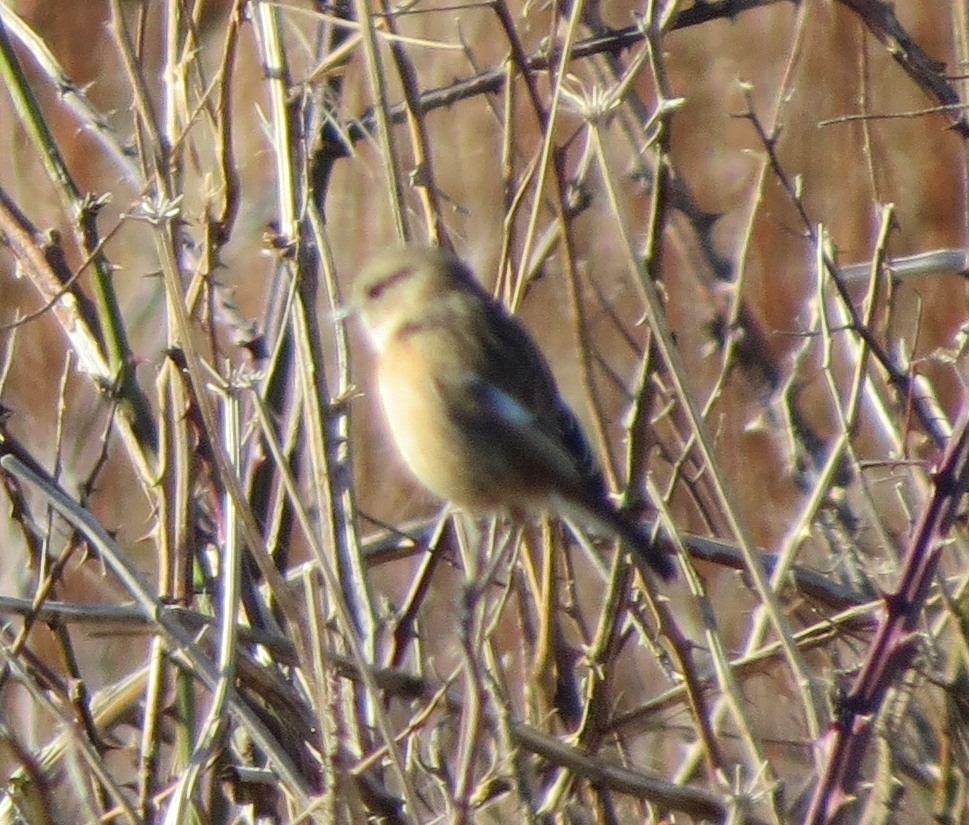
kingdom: Animalia
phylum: Chordata
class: Aves
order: Passeriformes
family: Muscicapidae
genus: Saxicola
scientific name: Saxicola rubicola
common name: European stonechat
